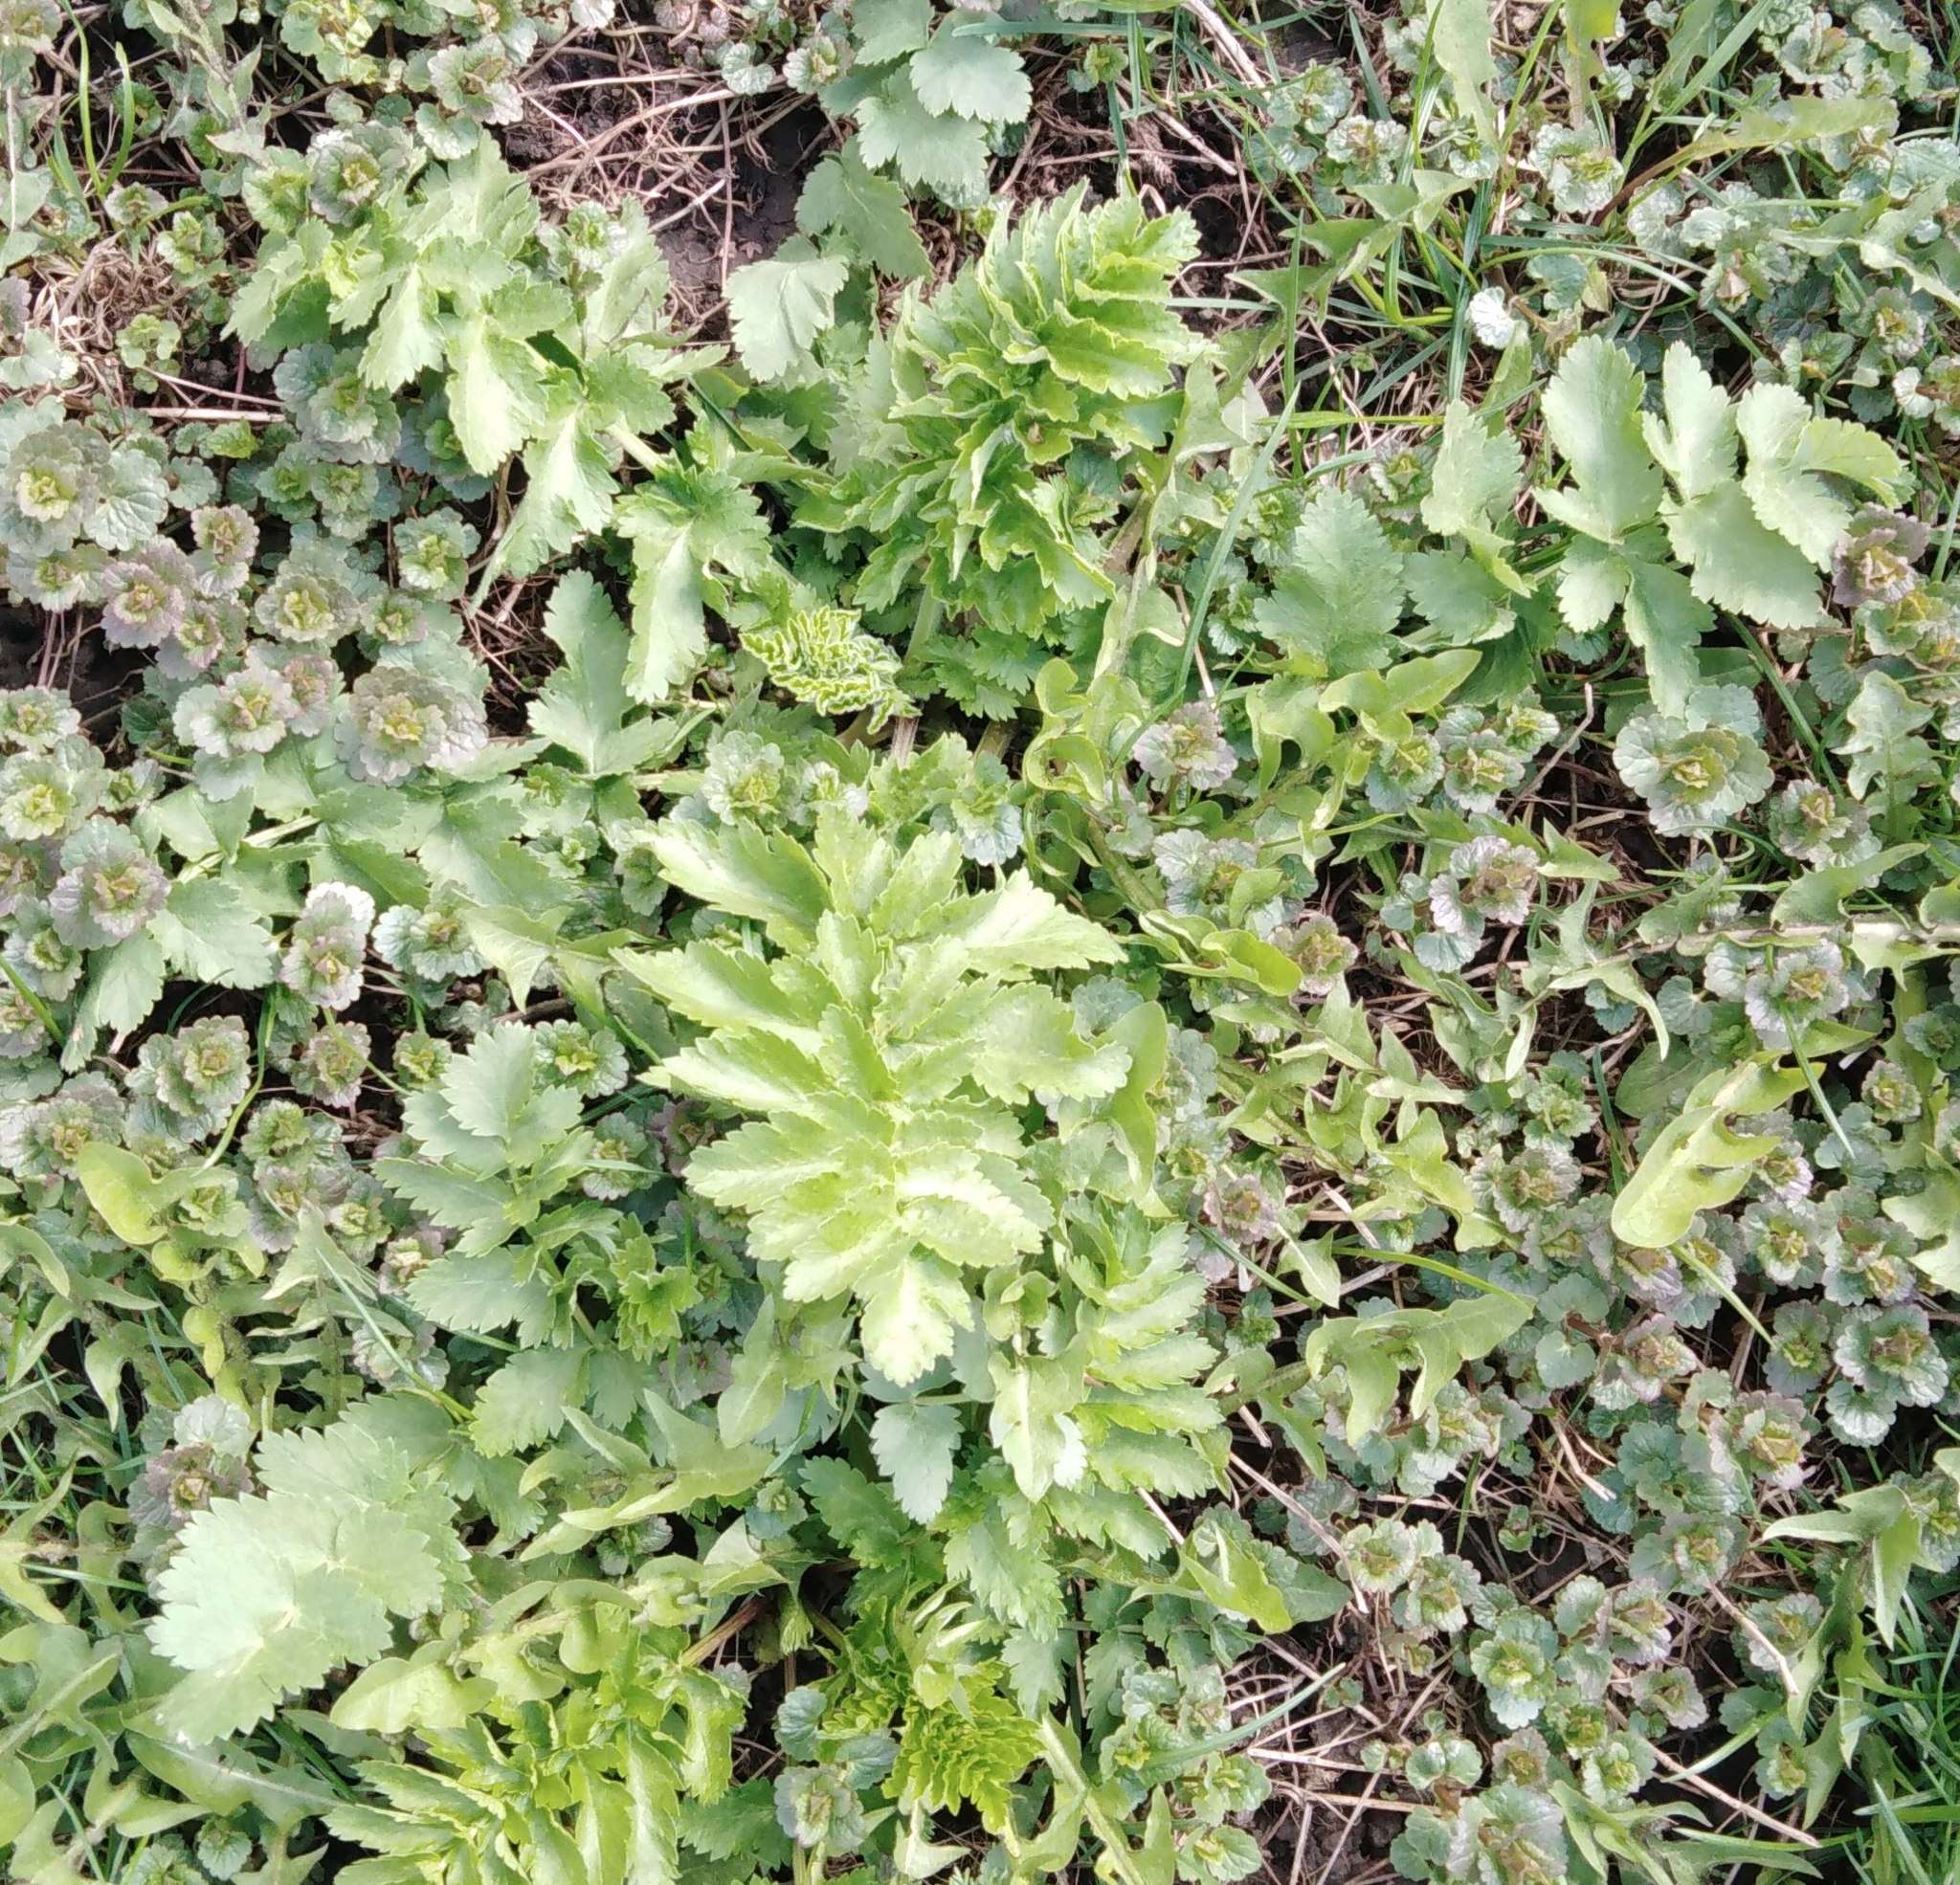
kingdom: Plantae
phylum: Tracheophyta
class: Magnoliopsida
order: Apiales
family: Apiaceae
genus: Pastinaca
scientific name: Pastinaca sativa
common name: Wild parsnip
